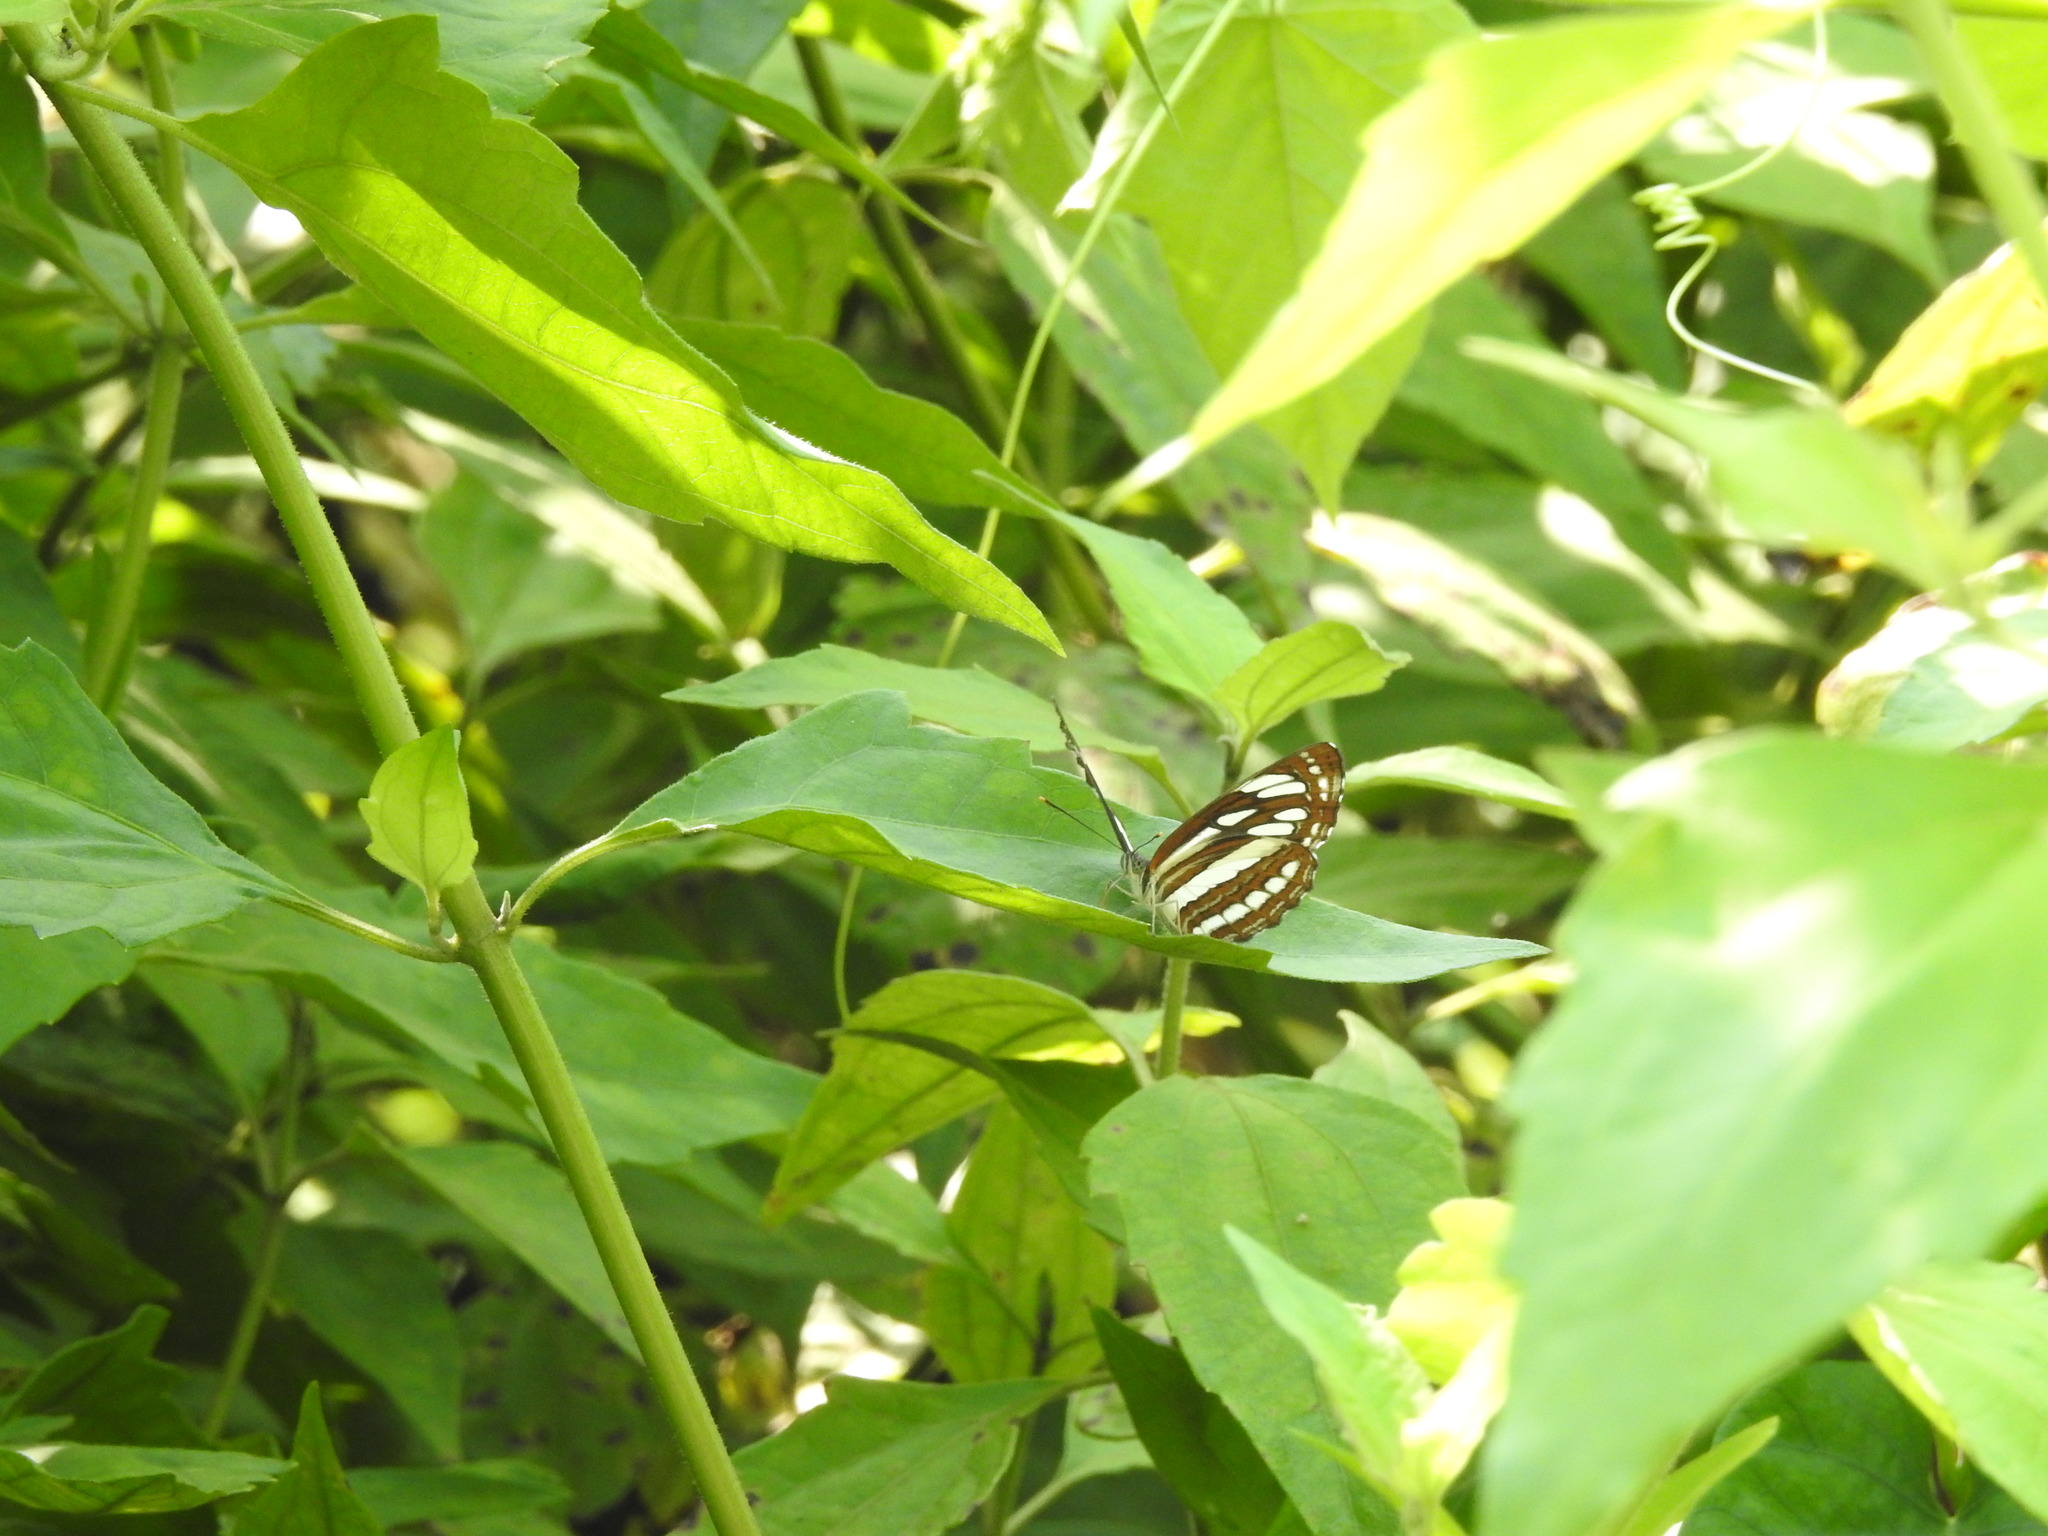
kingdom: Animalia
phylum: Arthropoda
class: Insecta
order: Lepidoptera
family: Nymphalidae
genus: Neptis
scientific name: Neptis hylas
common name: Common sailer
